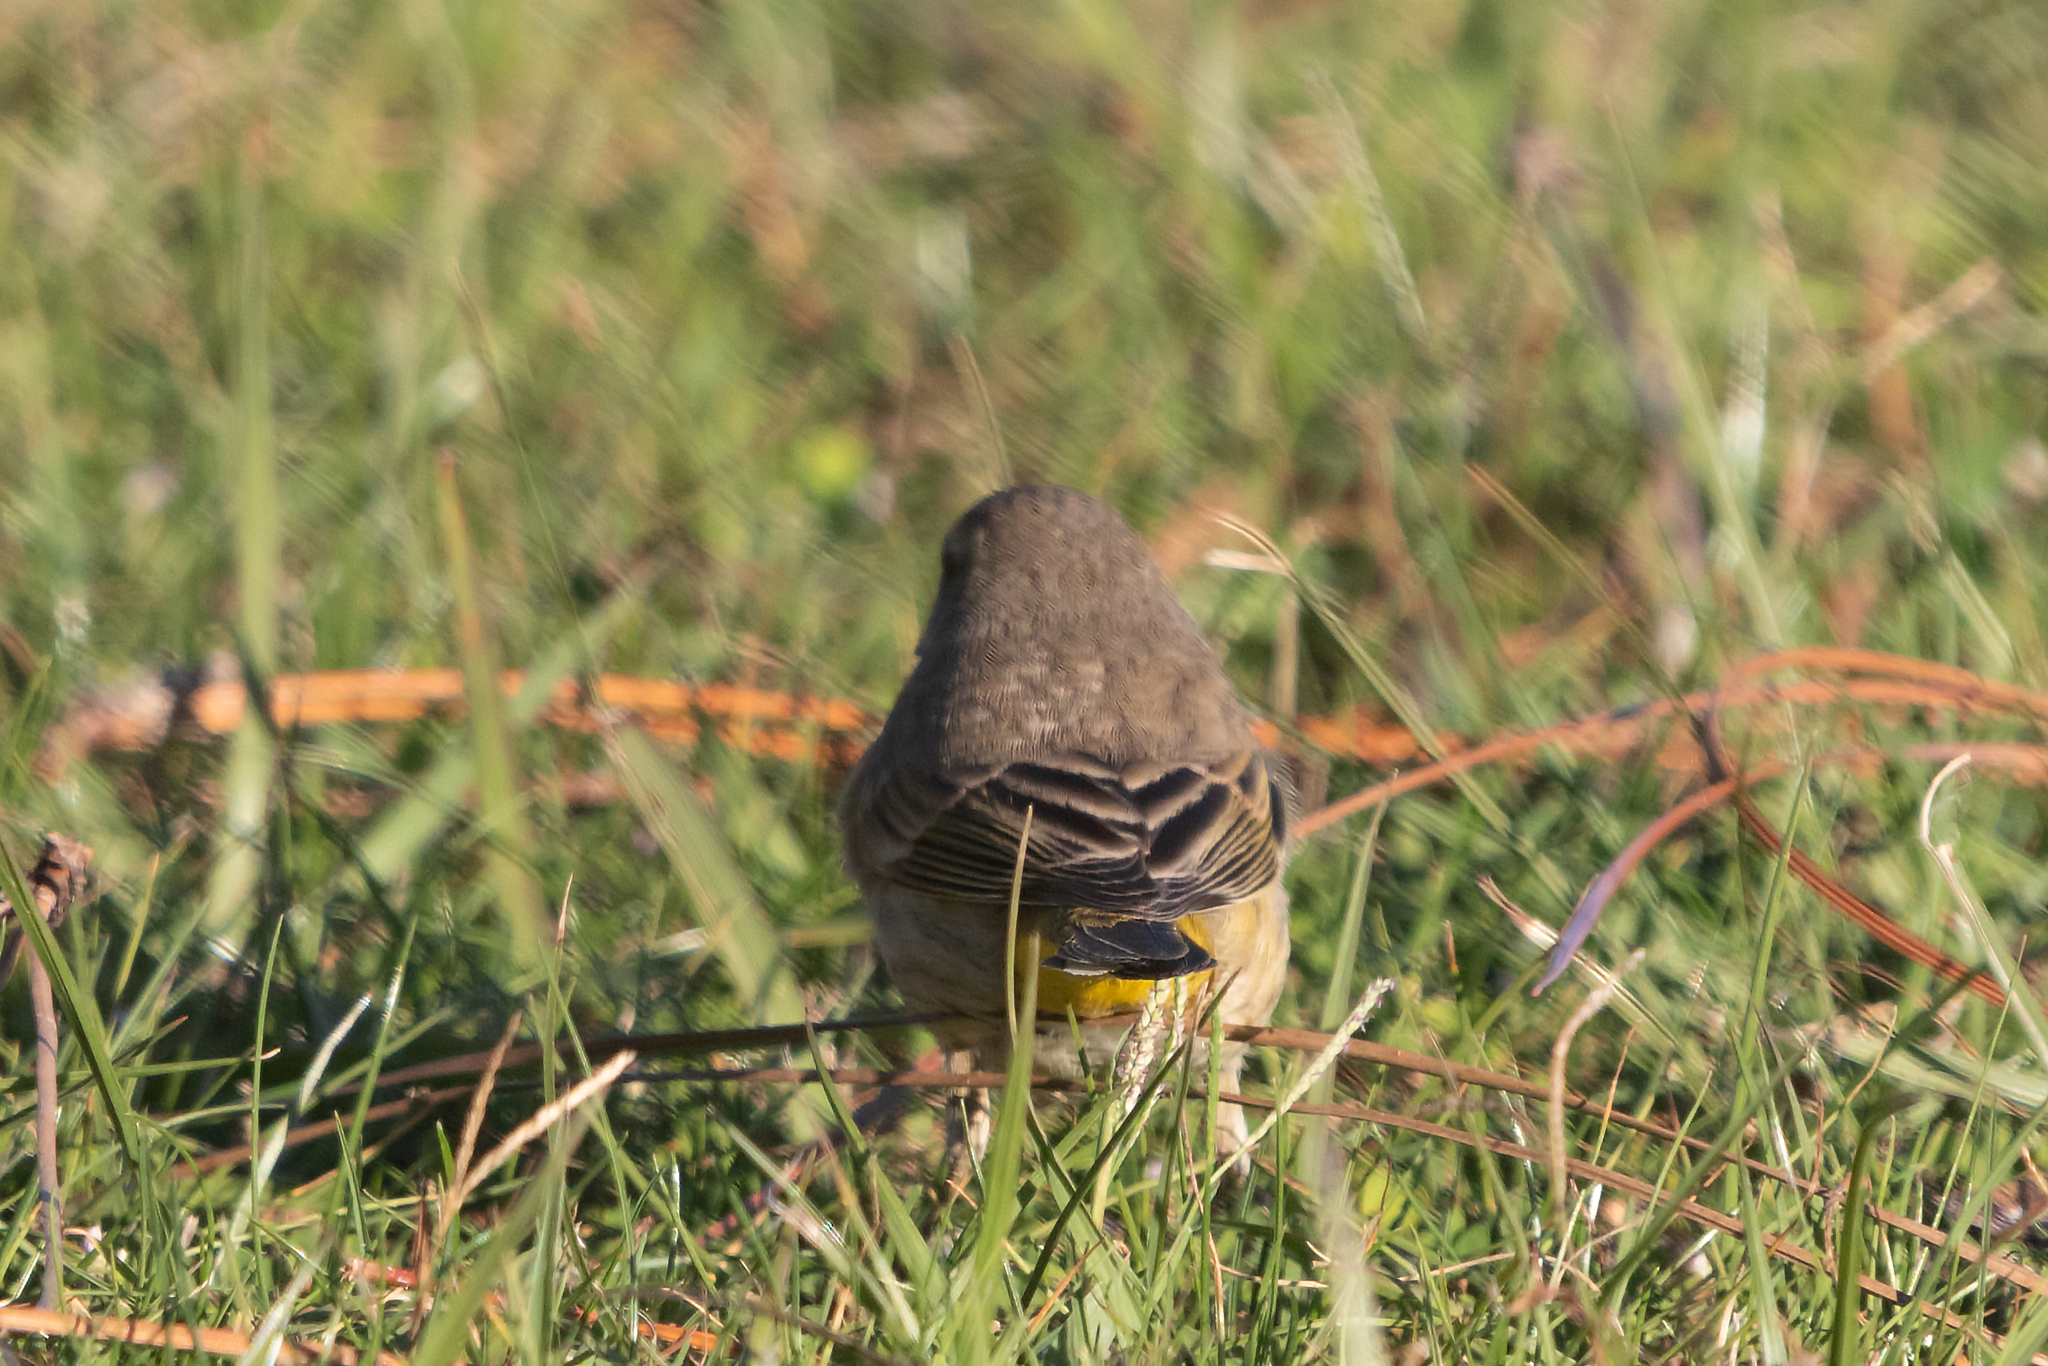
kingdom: Animalia
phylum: Chordata
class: Aves
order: Passeriformes
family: Parulidae
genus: Setophaga
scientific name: Setophaga palmarum
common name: Palm warbler
